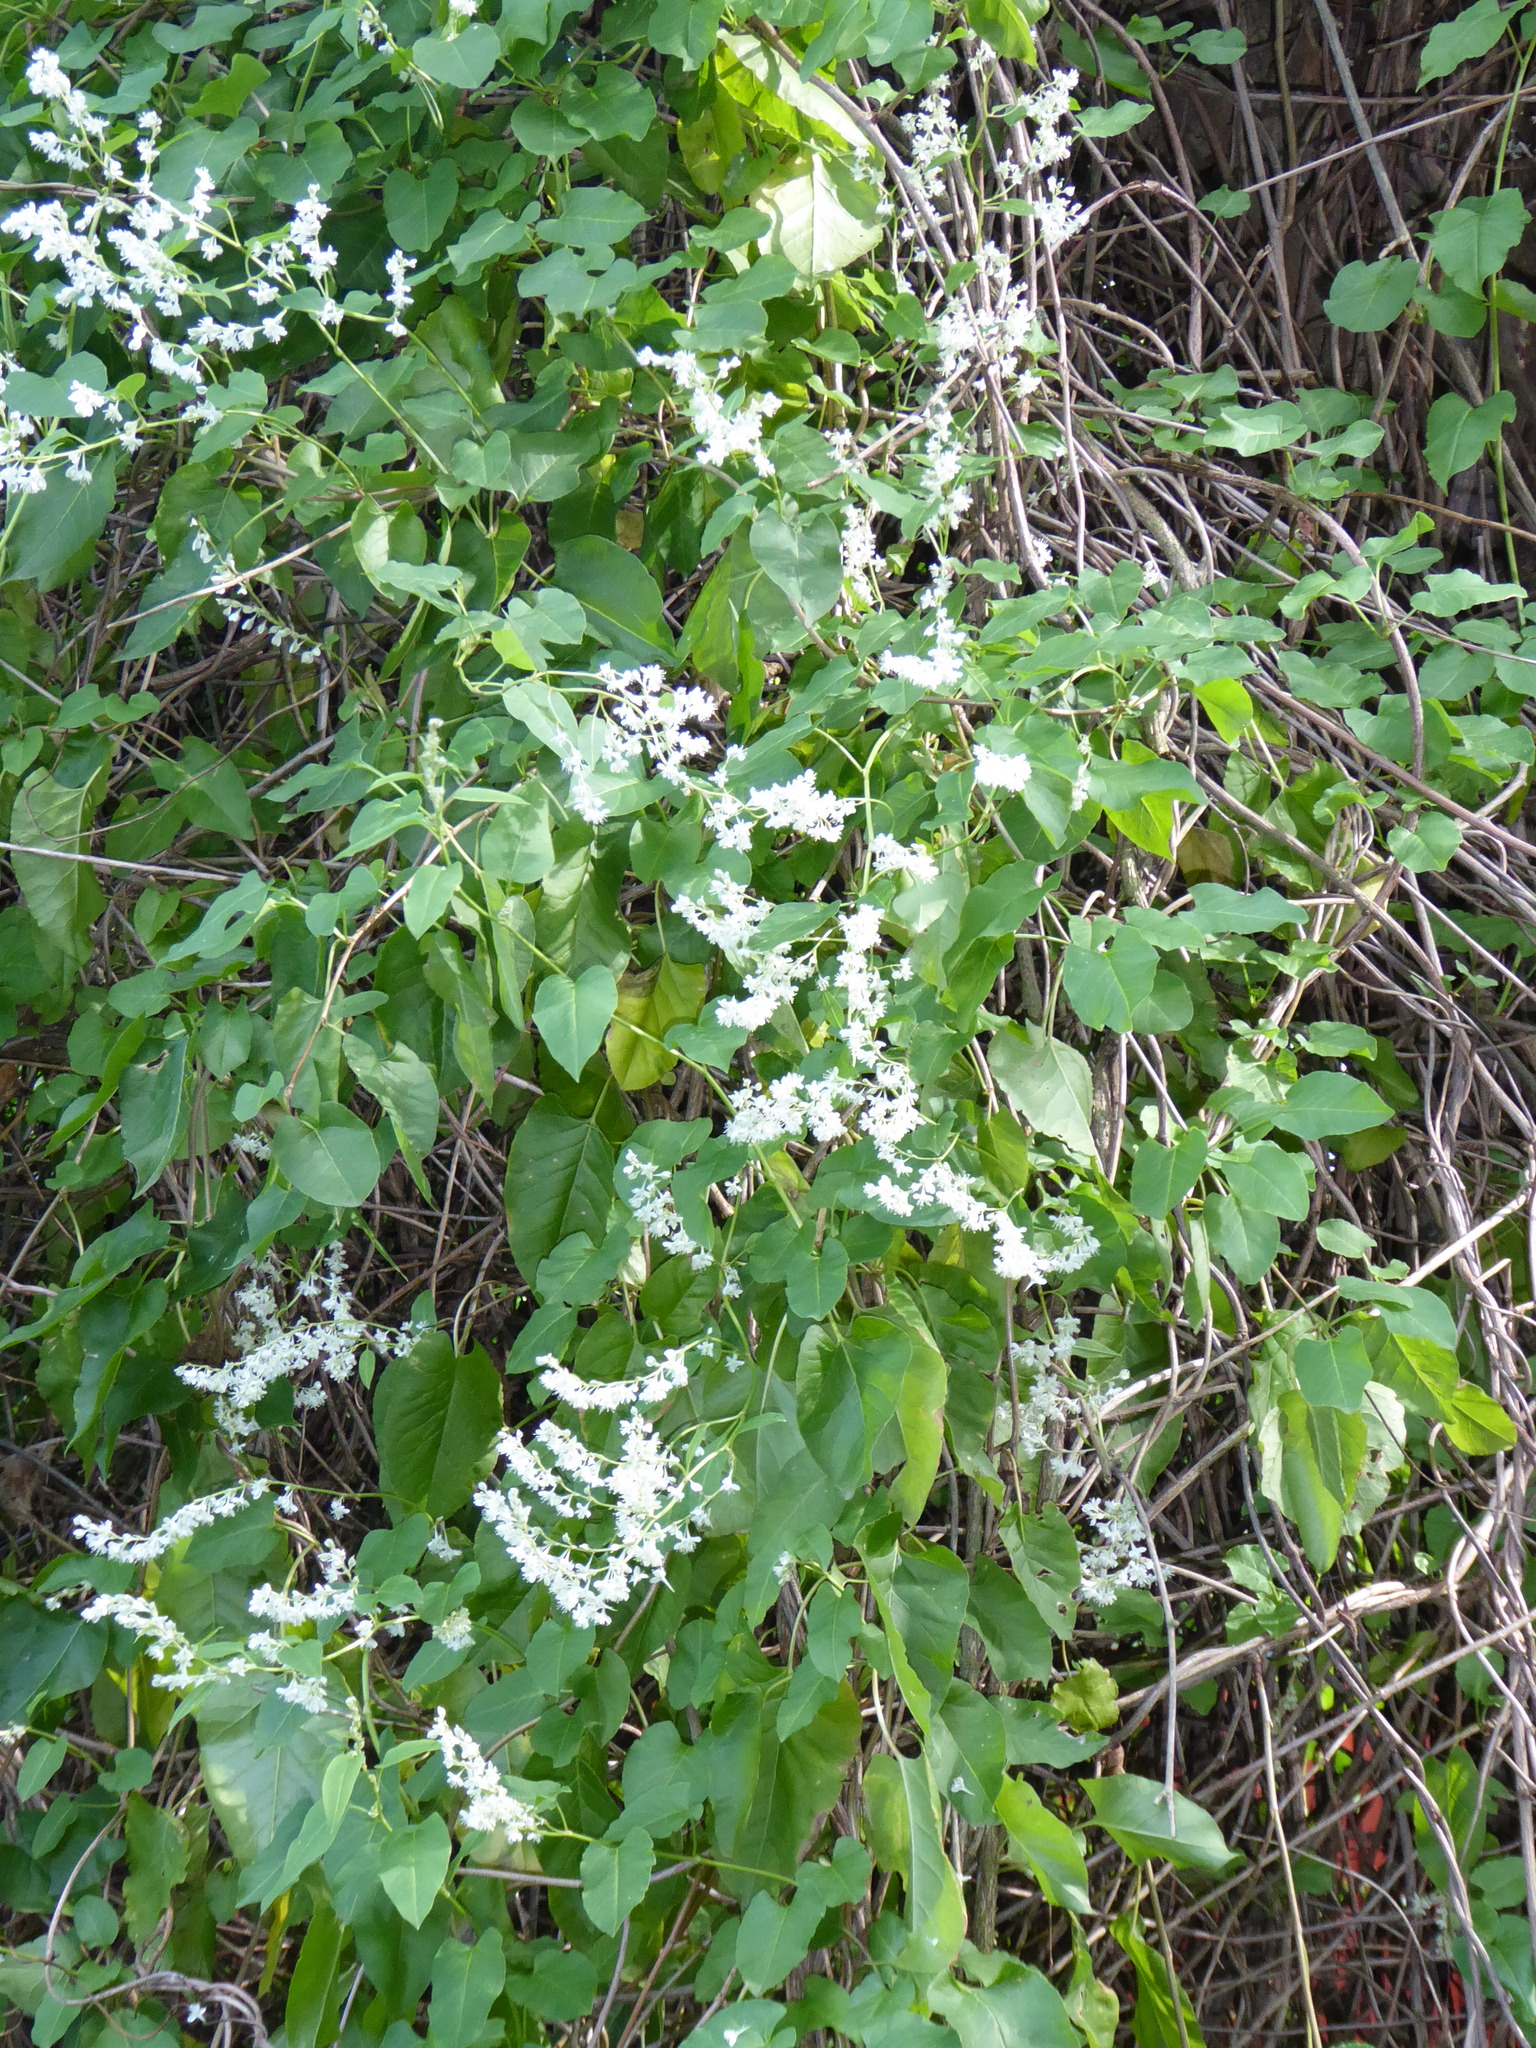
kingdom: Plantae
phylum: Tracheophyta
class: Magnoliopsida
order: Caryophyllales
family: Polygonaceae
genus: Fallopia
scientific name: Fallopia baldschuanica
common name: Russian-vine
